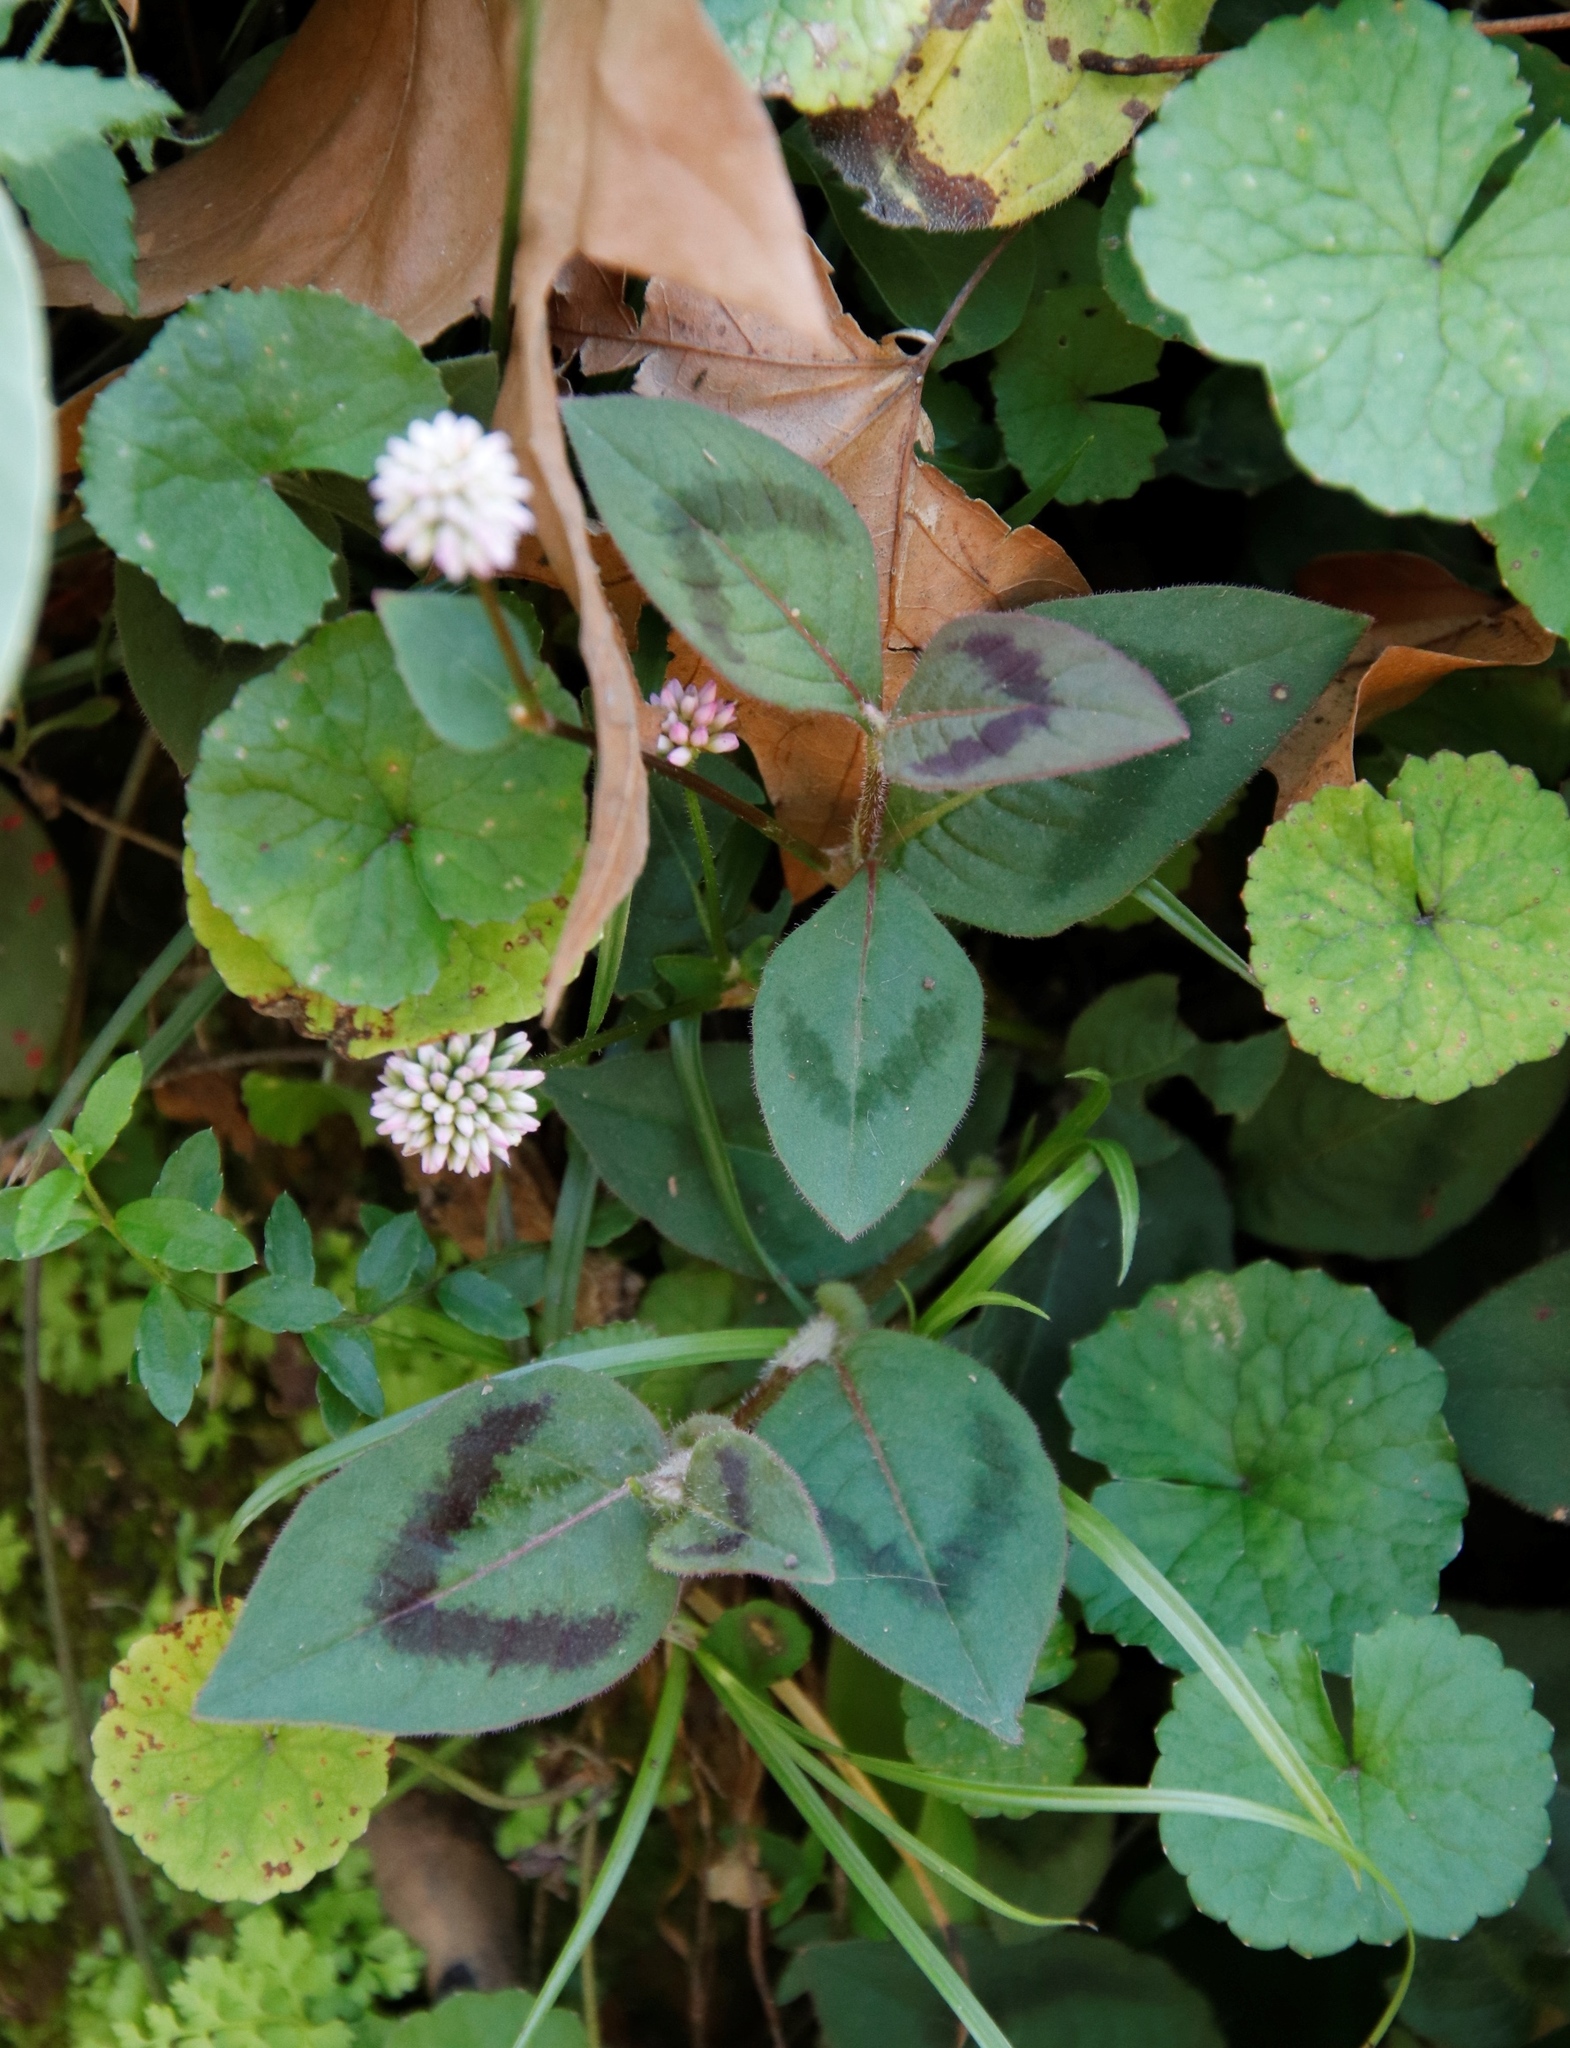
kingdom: Plantae
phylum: Tracheophyta
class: Magnoliopsida
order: Caryophyllales
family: Polygonaceae
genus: Persicaria
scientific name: Persicaria capitata
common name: Pinkhead smartweed
